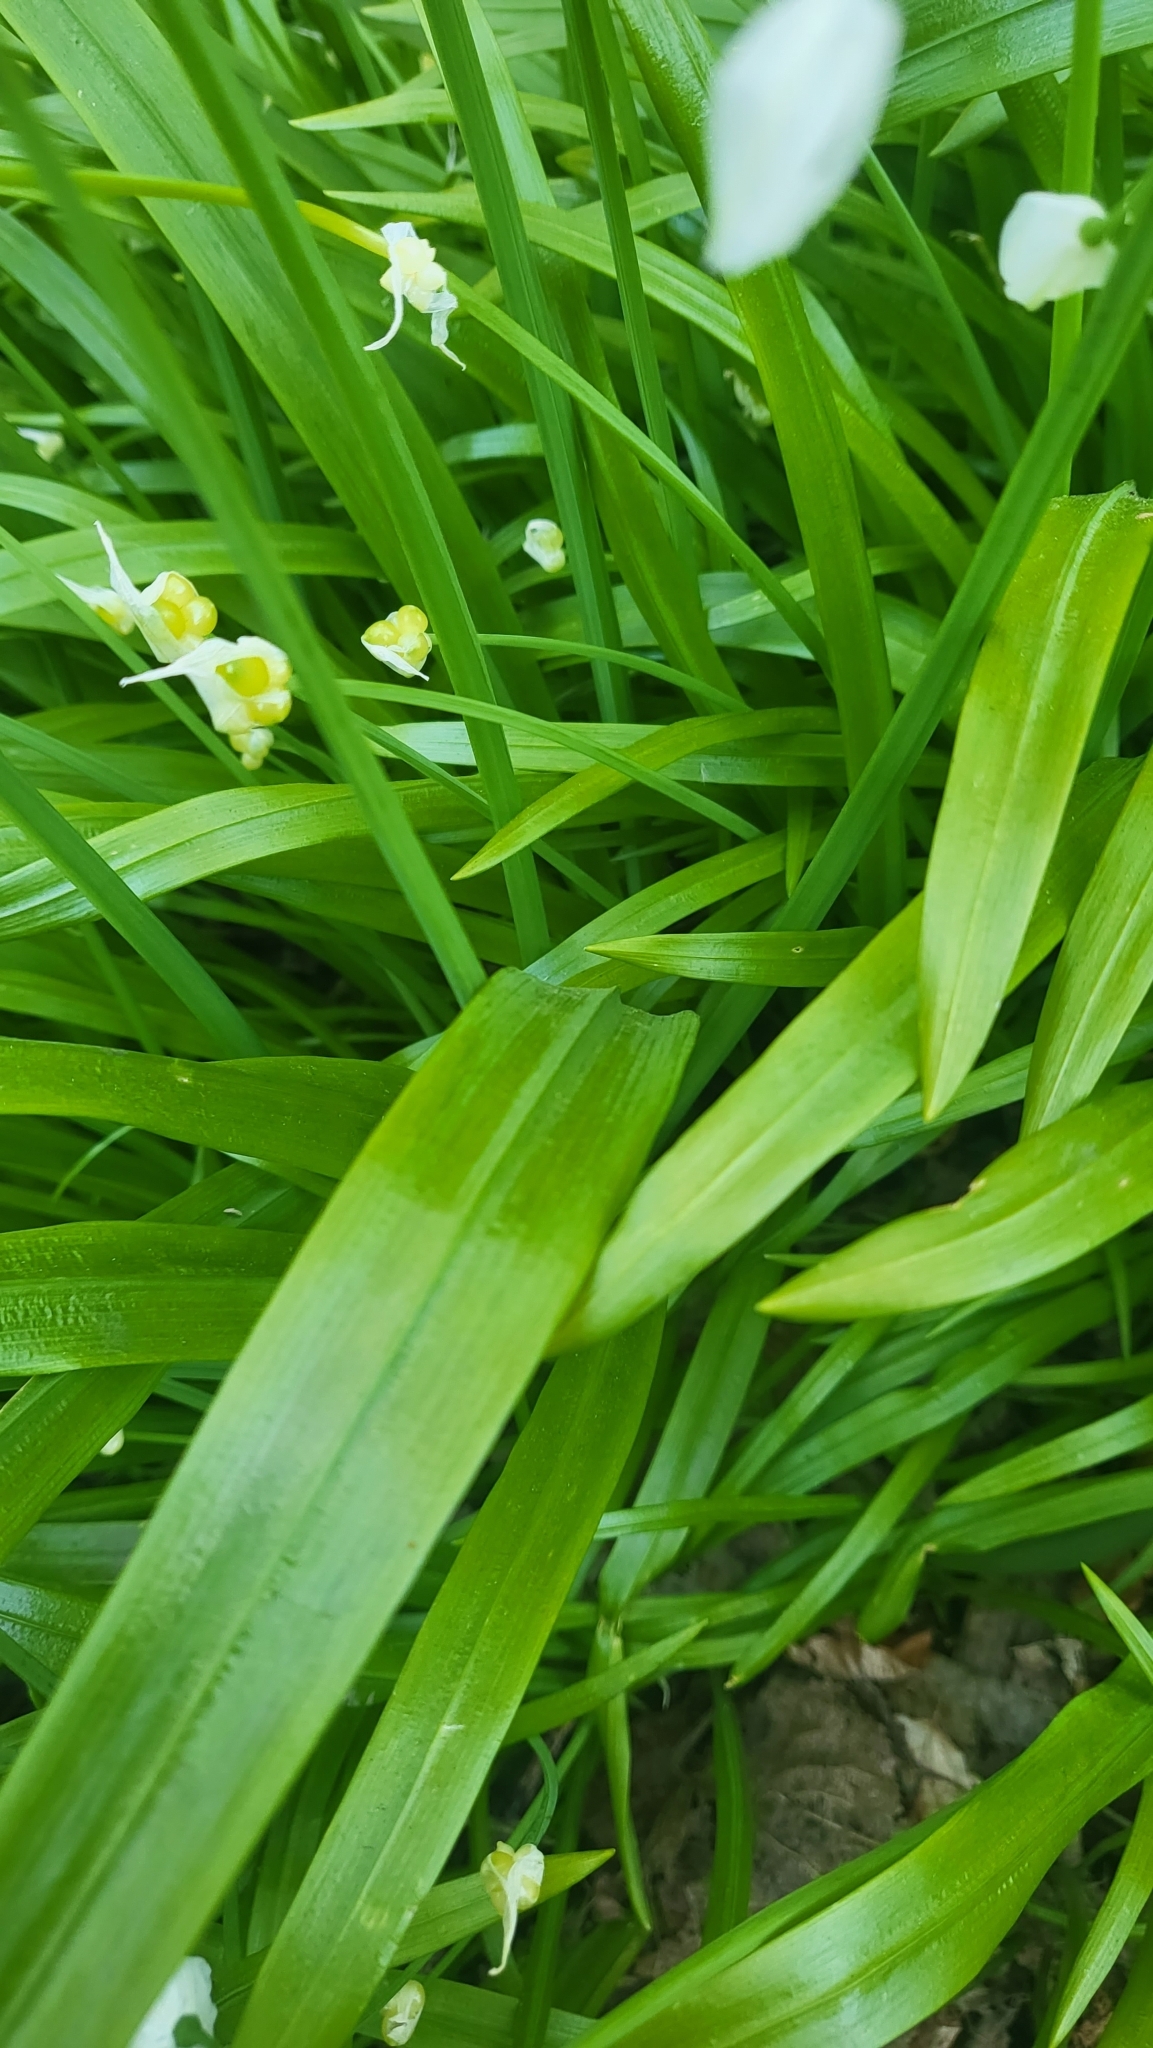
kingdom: Plantae
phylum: Tracheophyta
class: Liliopsida
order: Asparagales
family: Amaryllidaceae
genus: Allium
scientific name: Allium paradoxum
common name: Few-flowered garlic
